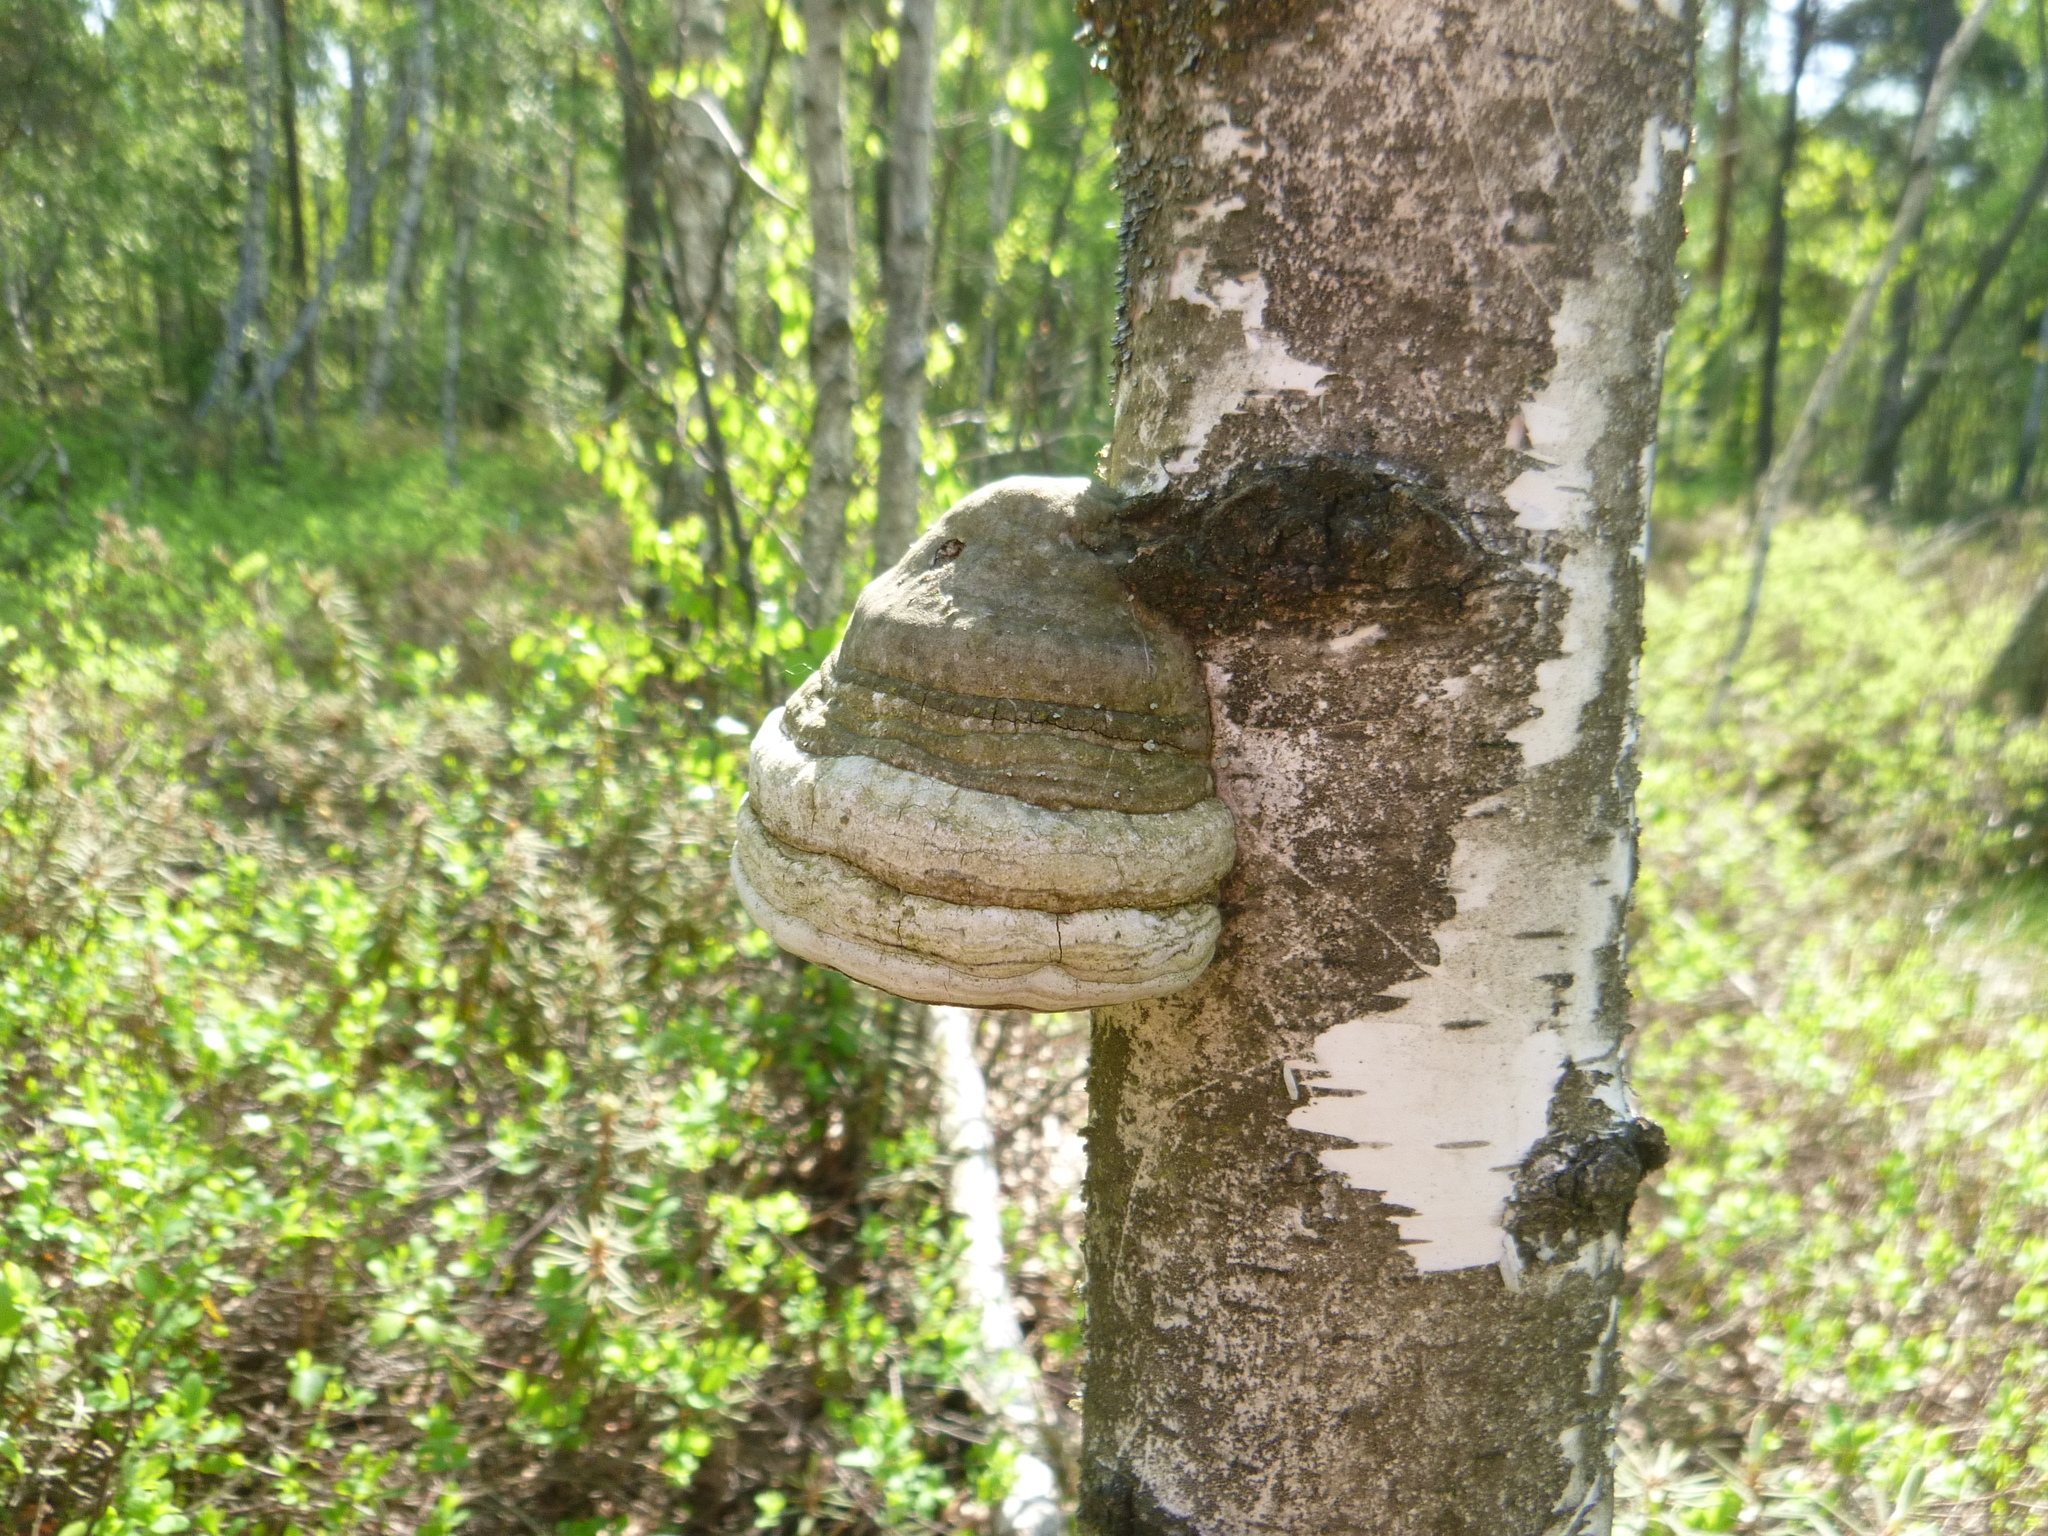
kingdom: Fungi
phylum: Basidiomycota
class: Agaricomycetes
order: Polyporales
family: Polyporaceae
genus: Fomes
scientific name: Fomes fomentarius
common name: Hoof fungus
